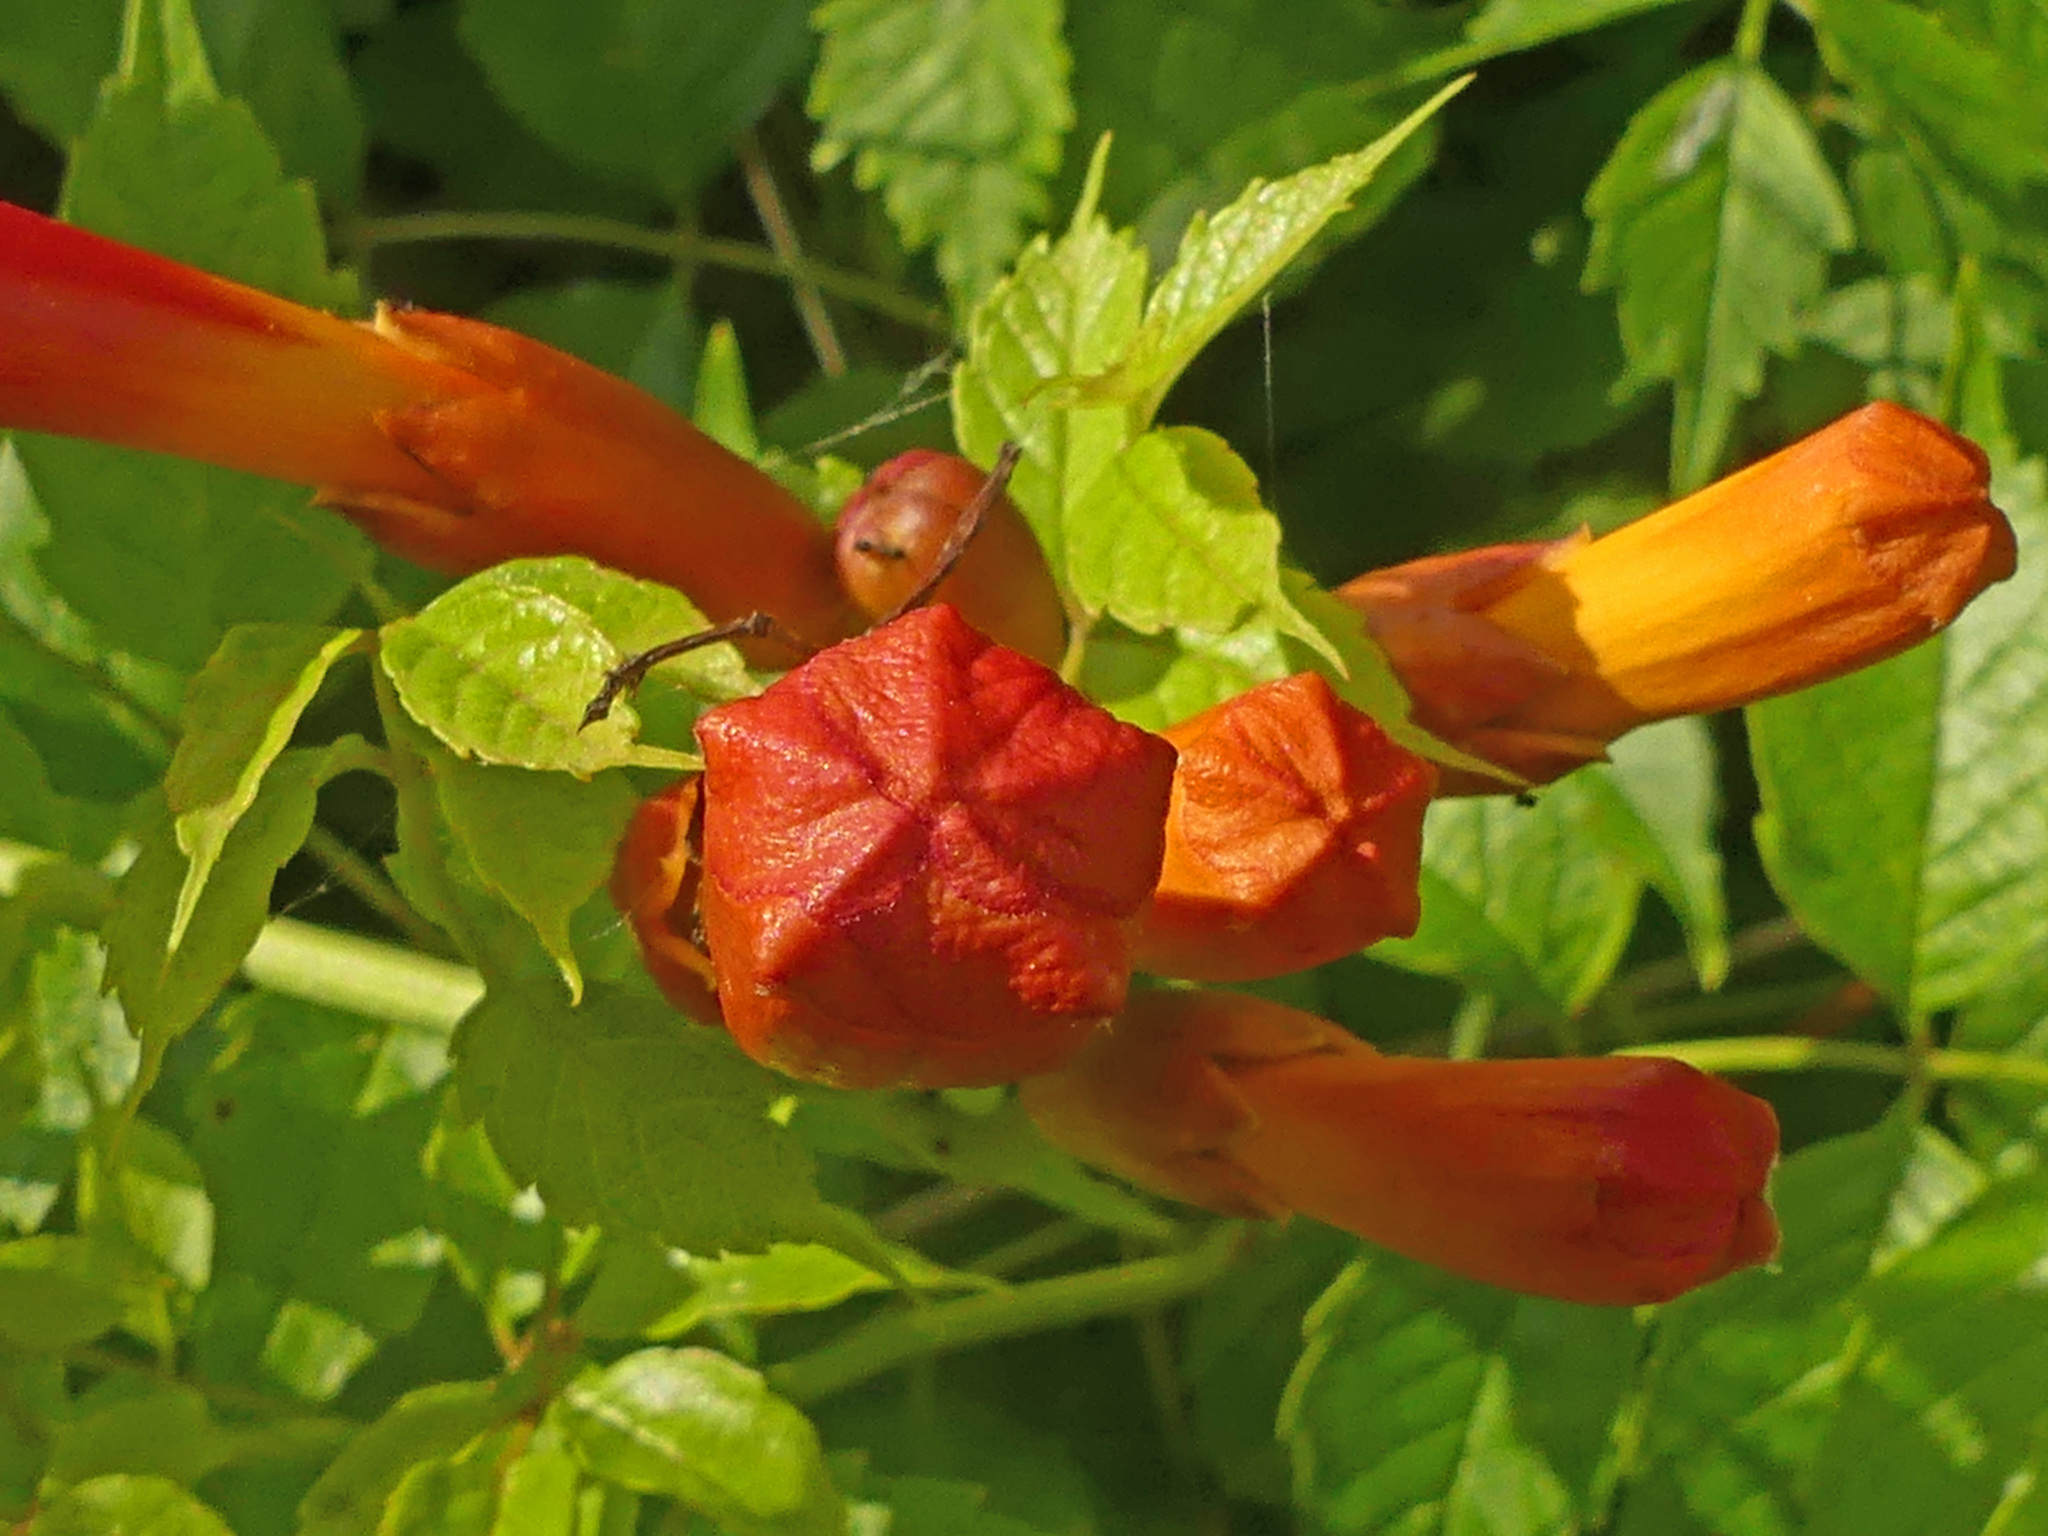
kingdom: Plantae
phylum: Tracheophyta
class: Magnoliopsida
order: Lamiales
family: Bignoniaceae
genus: Campsis
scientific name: Campsis radicans
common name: Trumpet-creeper
